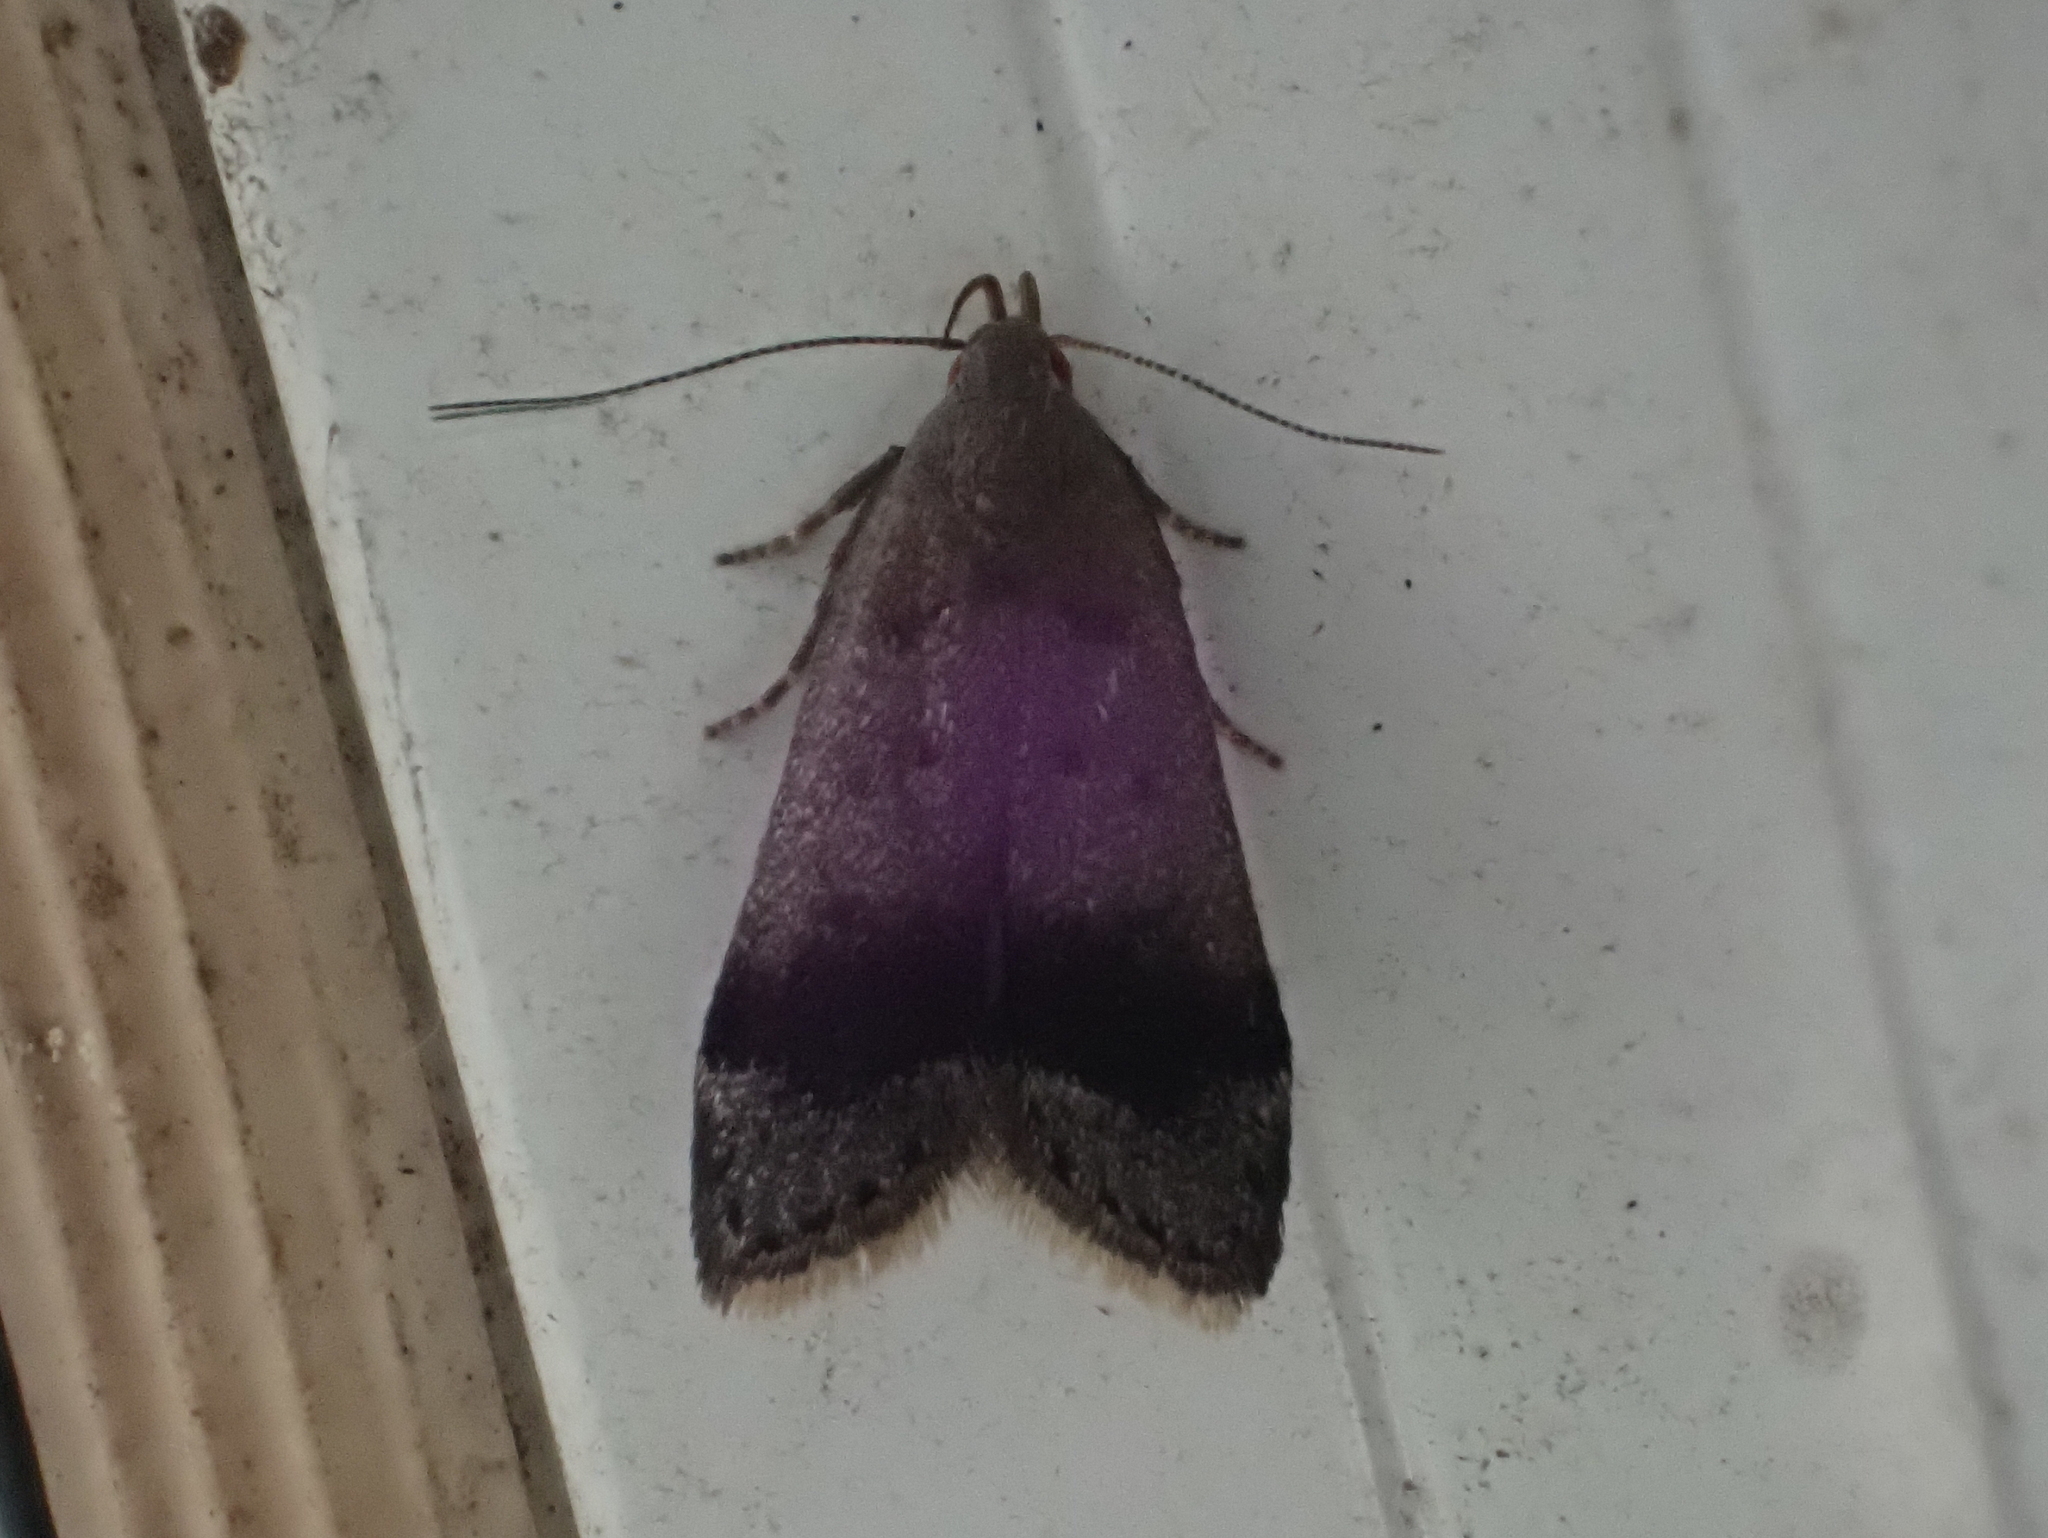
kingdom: Animalia
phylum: Arthropoda
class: Insecta
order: Lepidoptera
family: Gelechiidae
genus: Anacampsis
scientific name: Anacampsis fragariella
